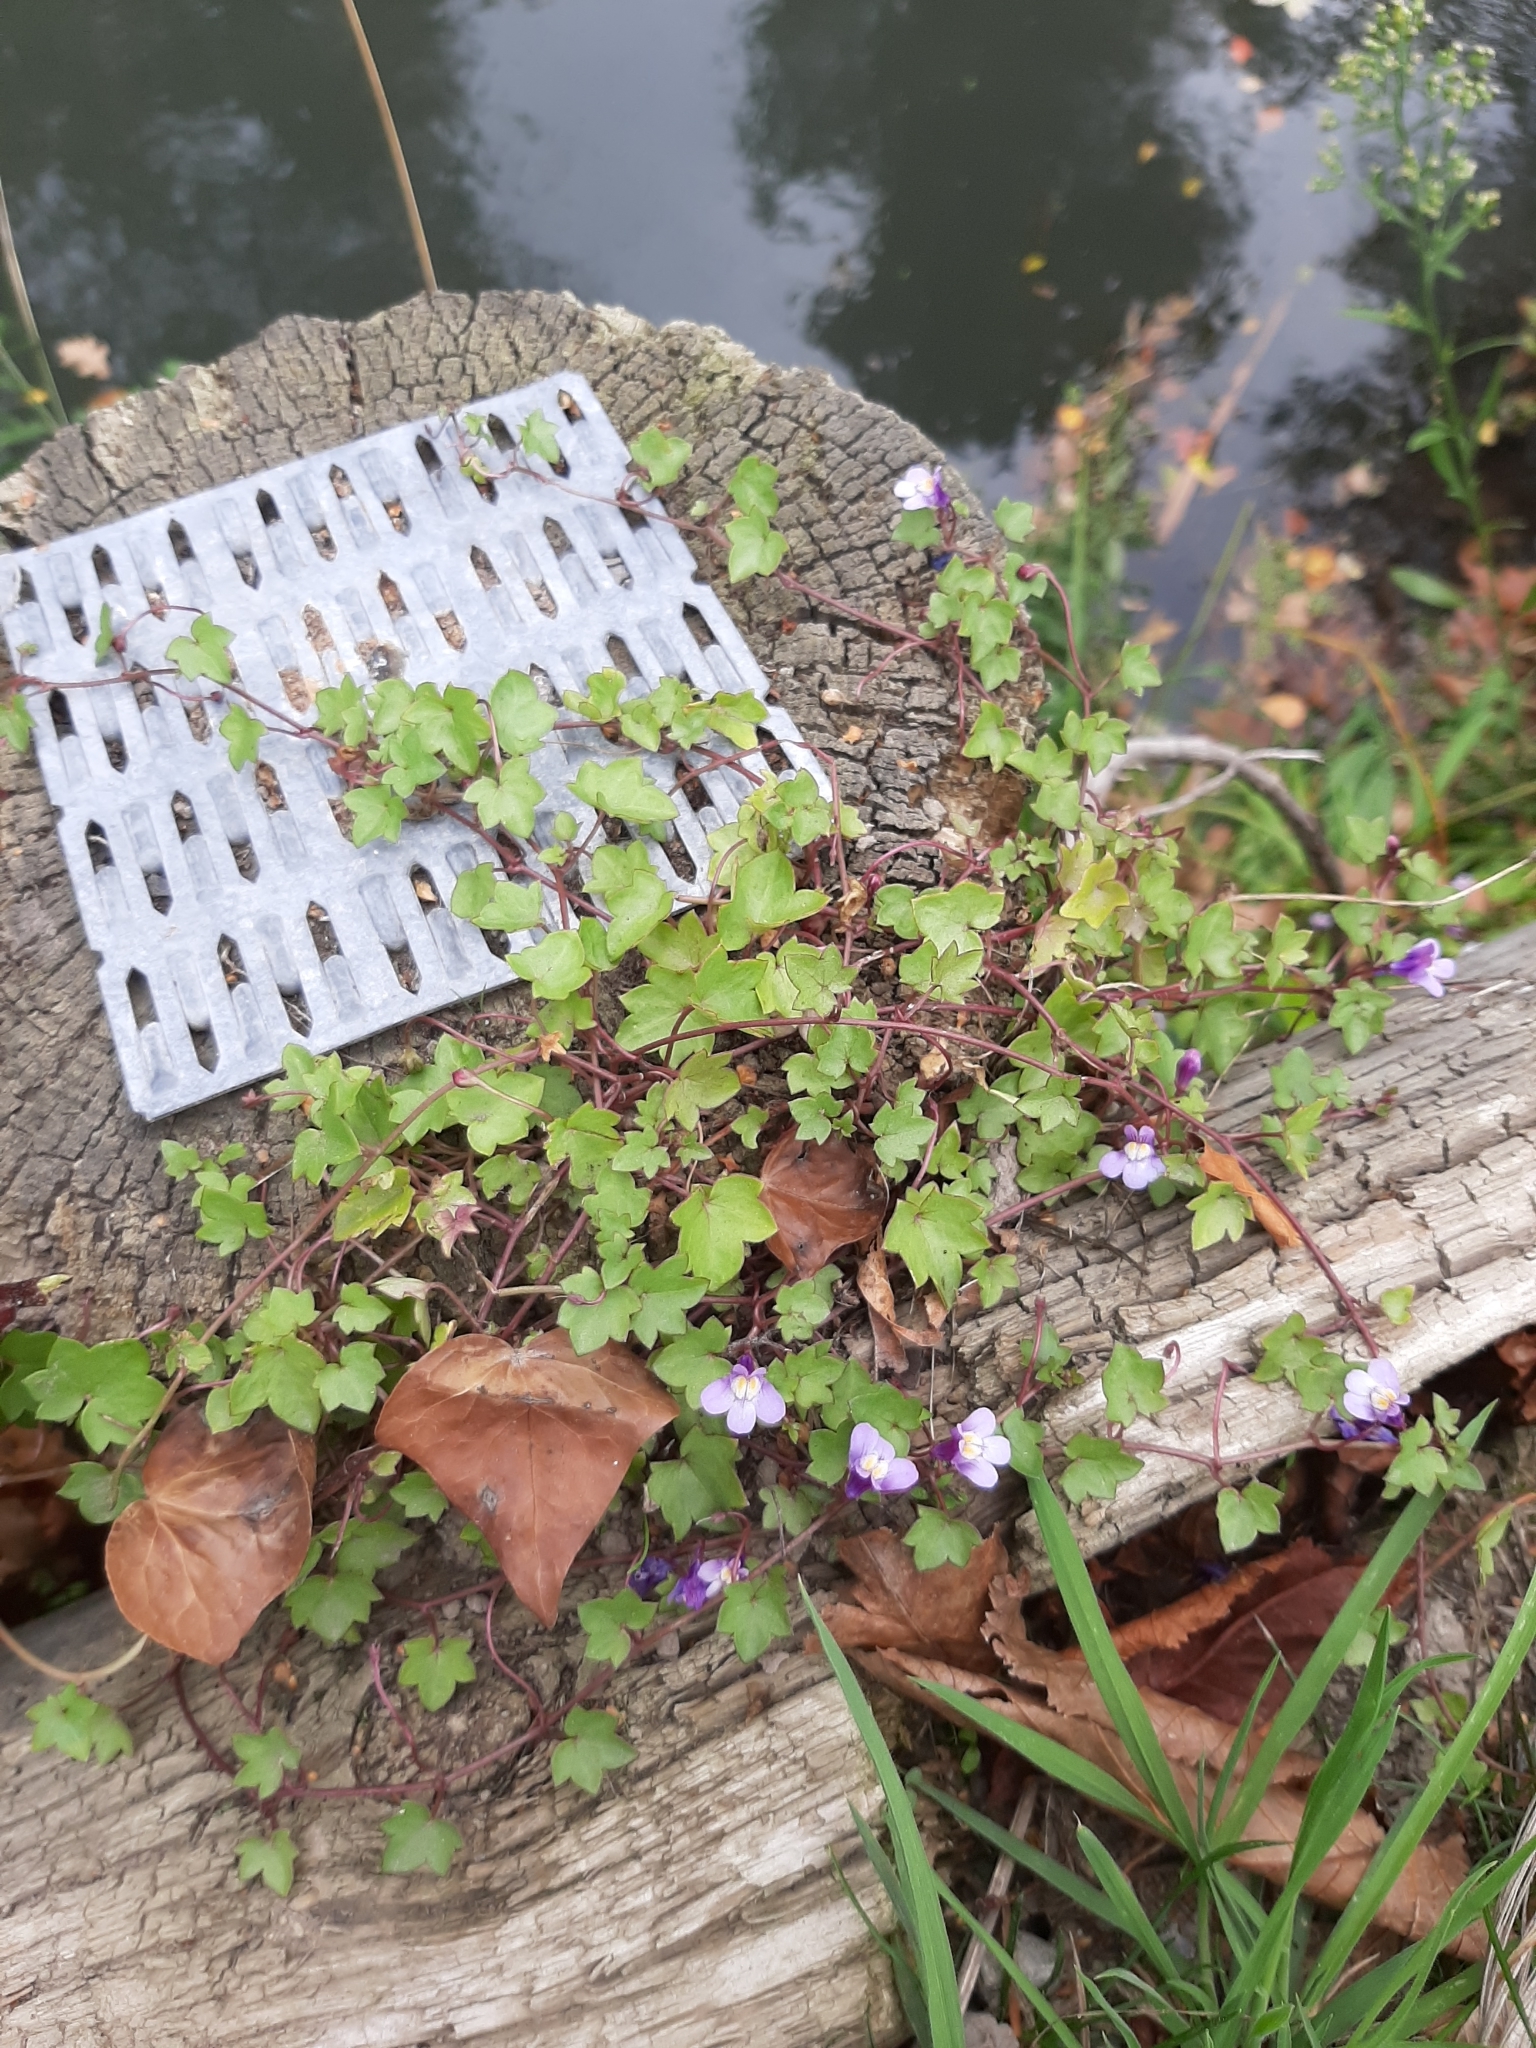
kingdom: Plantae
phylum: Tracheophyta
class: Magnoliopsida
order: Lamiales
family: Plantaginaceae
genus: Cymbalaria
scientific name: Cymbalaria muralis
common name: Ivy-leaved toadflax
